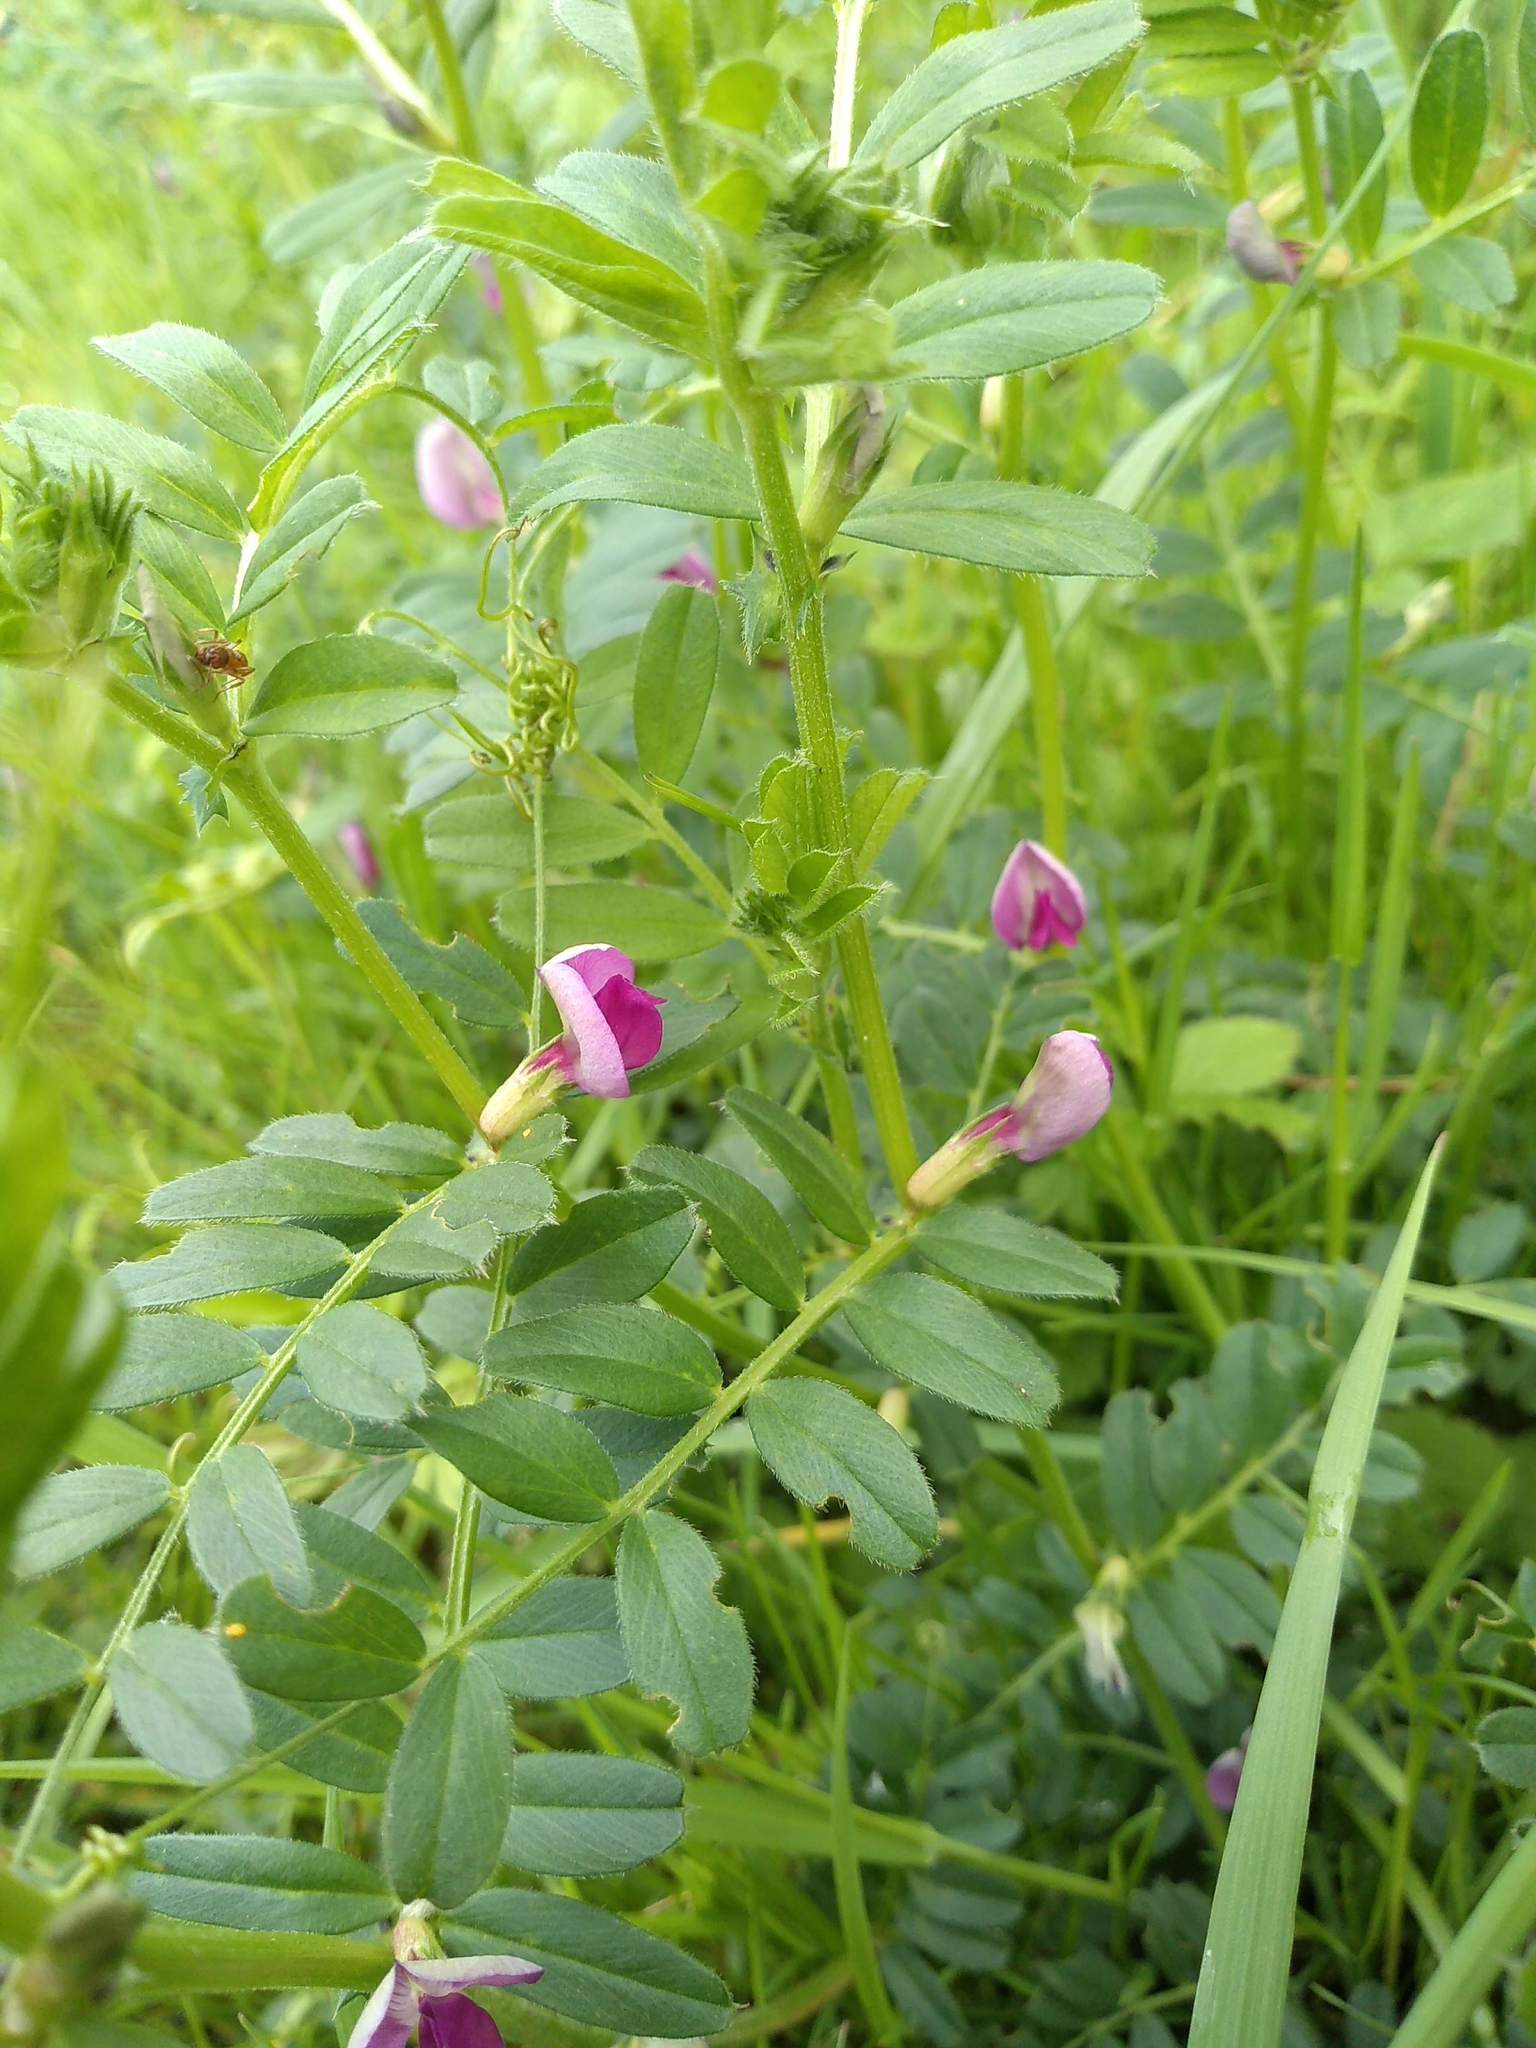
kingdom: Plantae
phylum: Tracheophyta
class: Magnoliopsida
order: Fabales
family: Fabaceae
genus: Vicia
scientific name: Vicia sativa
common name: Garden vetch
